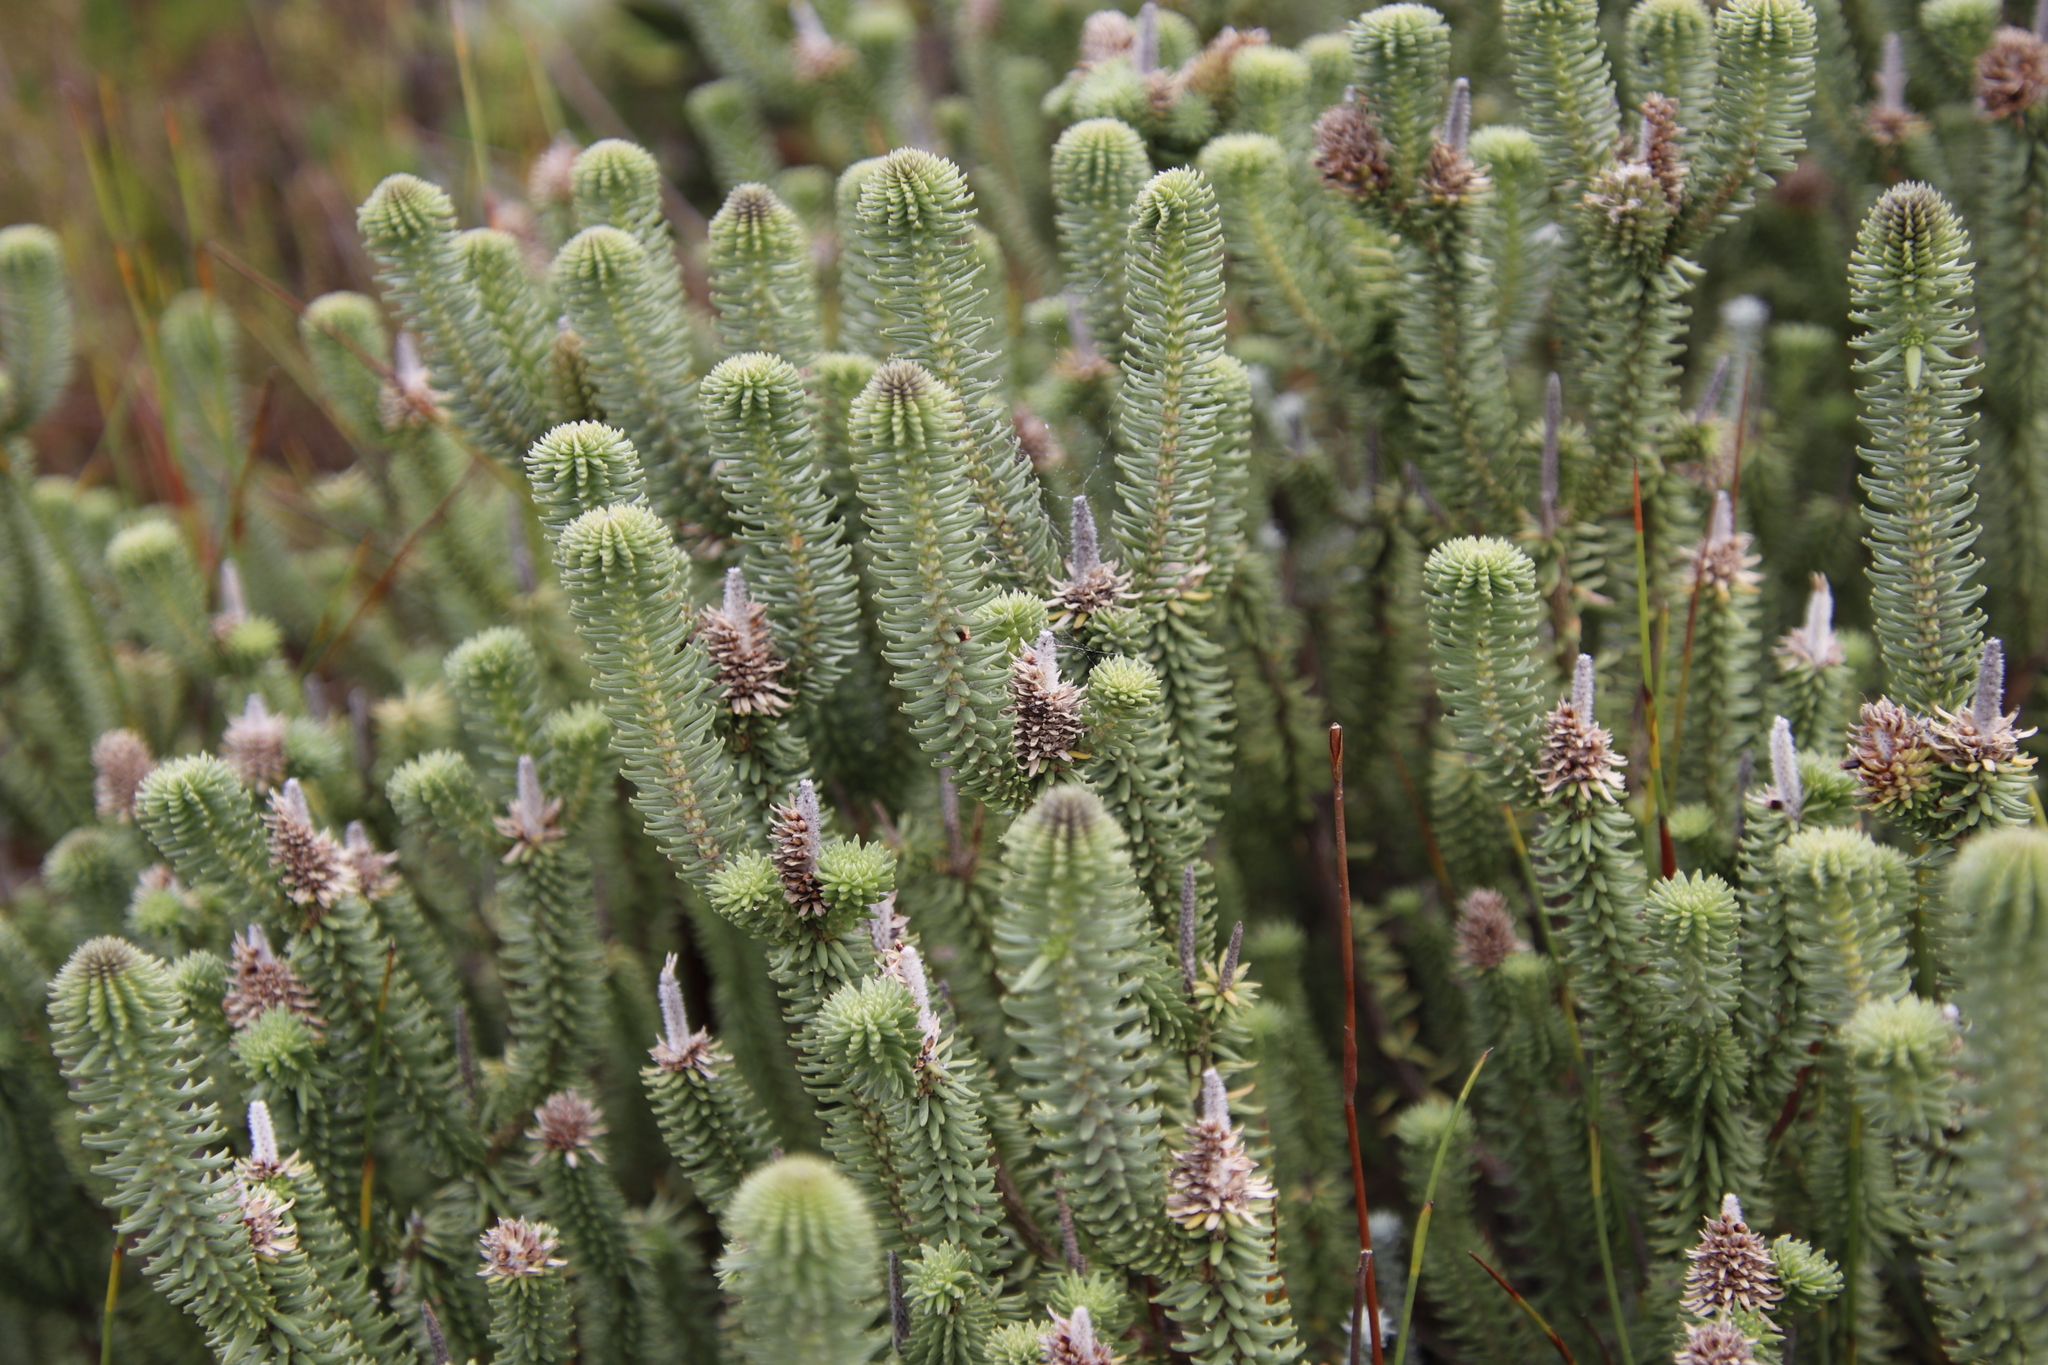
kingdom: Plantae
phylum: Tracheophyta
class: Magnoliopsida
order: Lamiales
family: Stilbaceae
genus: Stilbe
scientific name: Stilbe vestita
